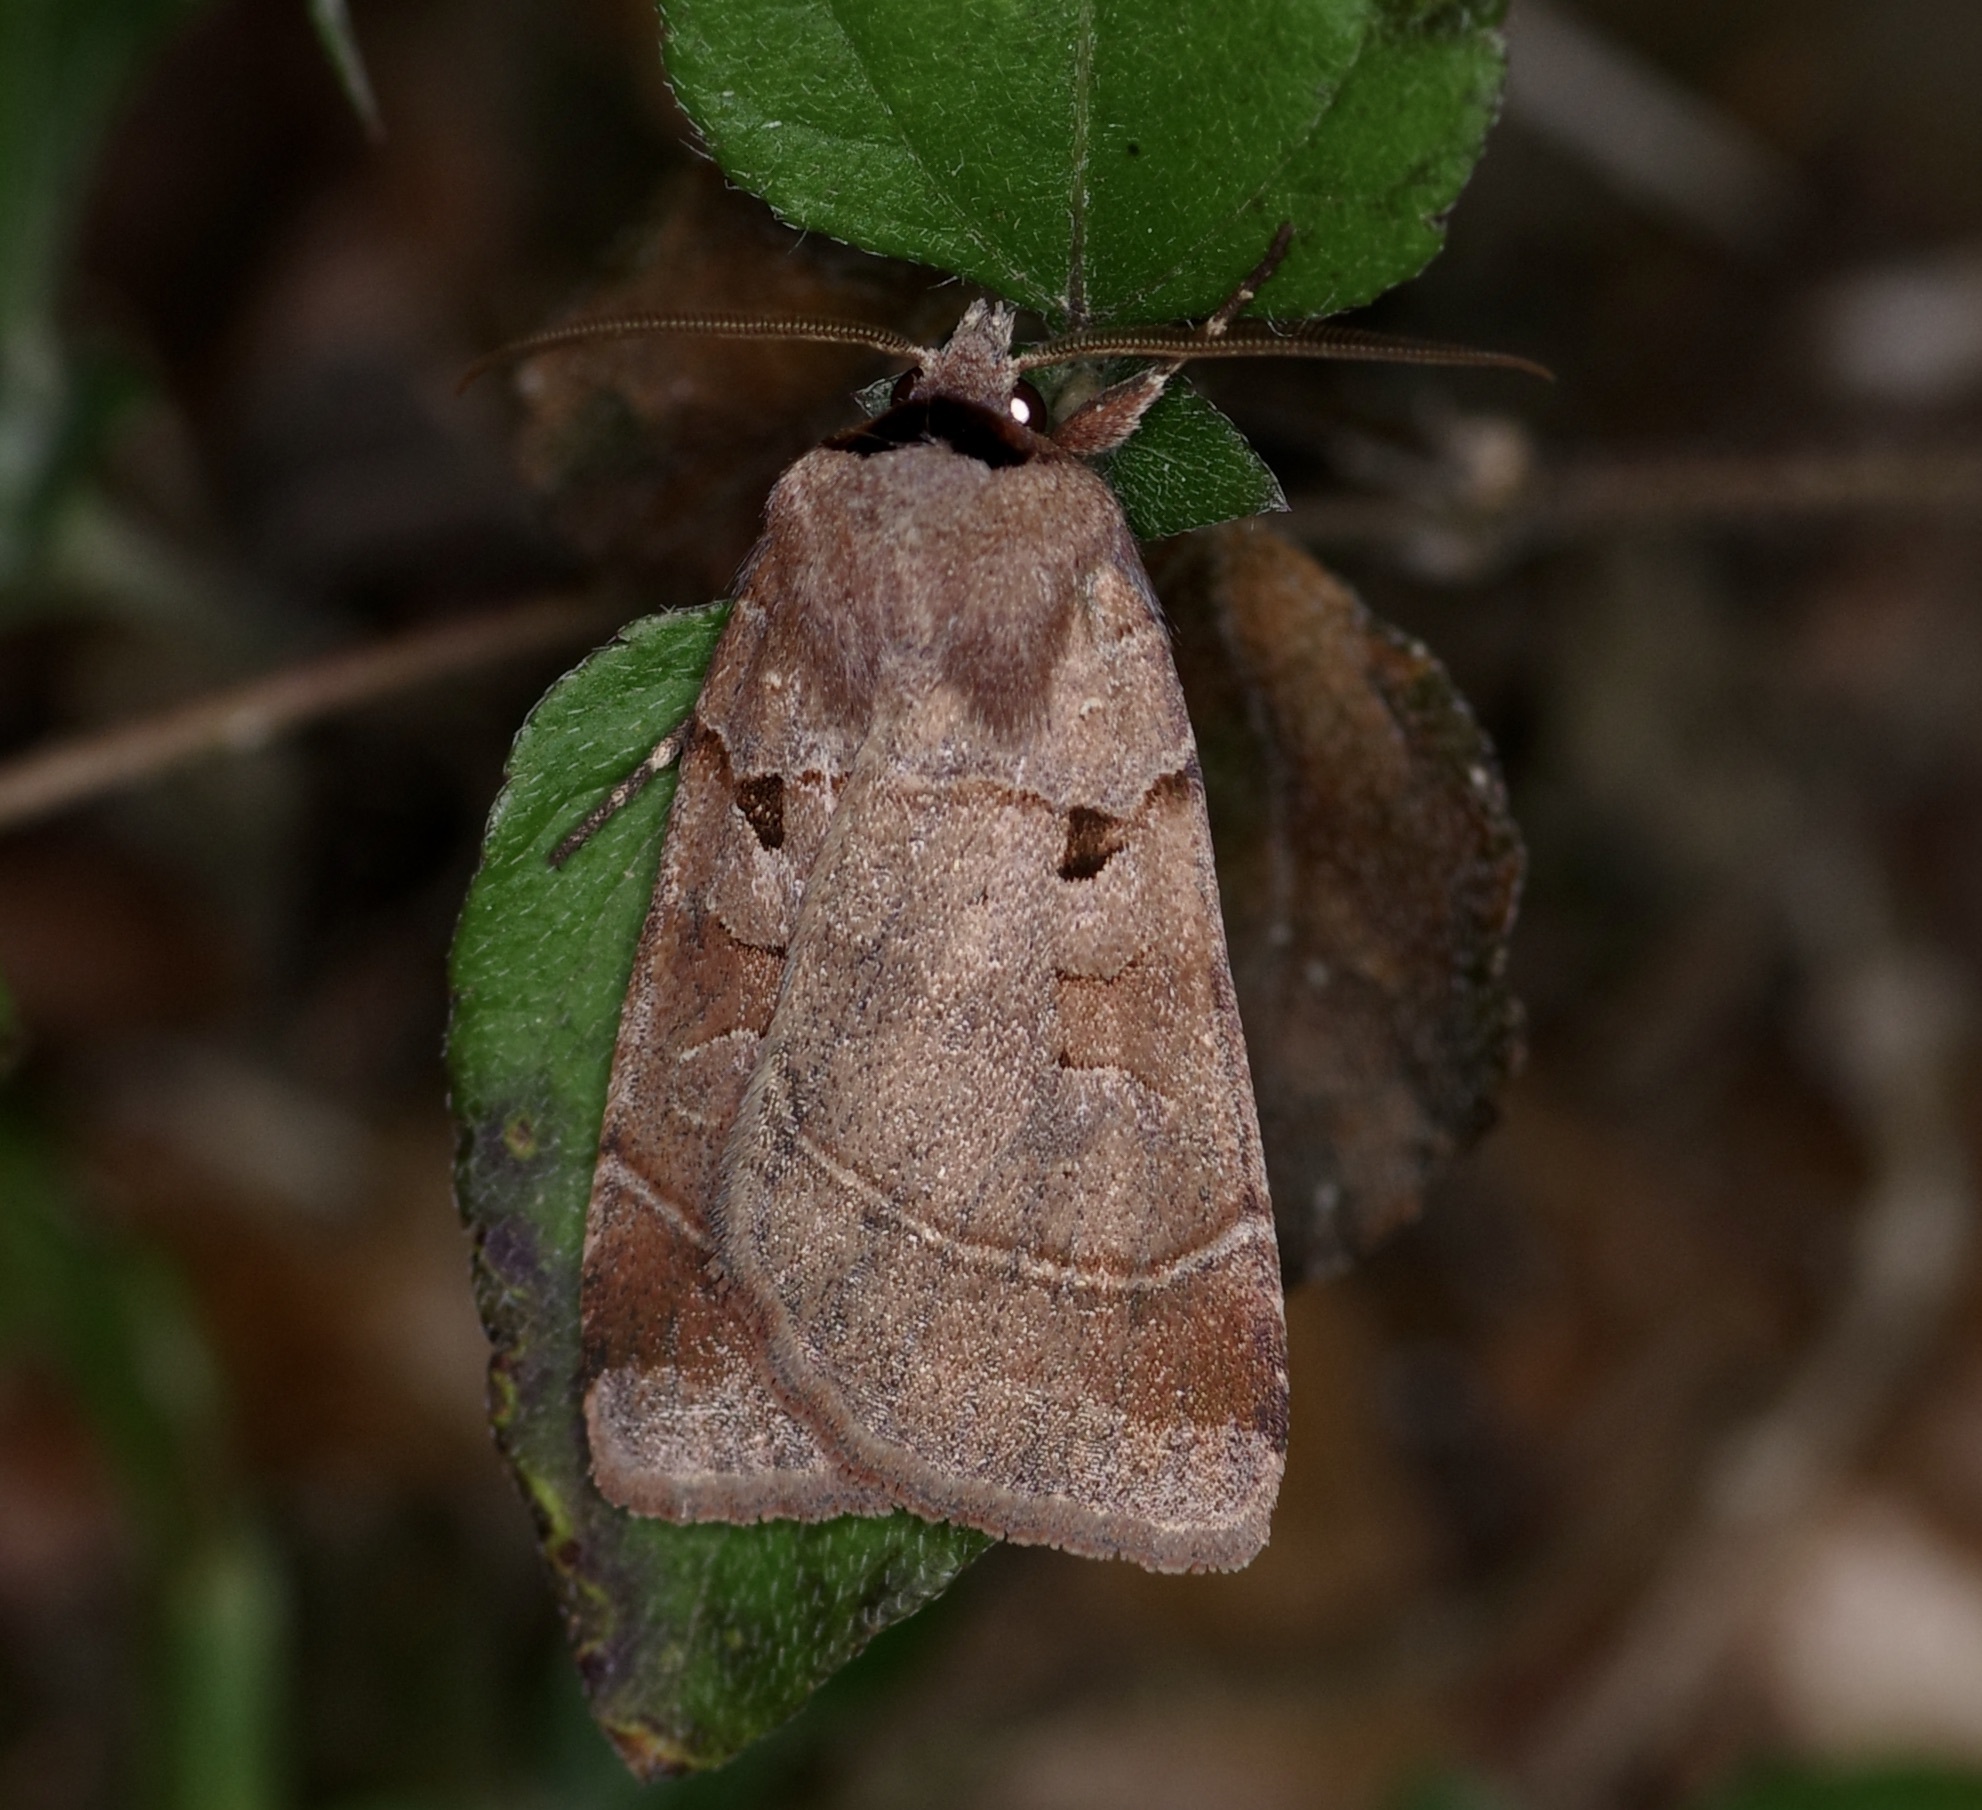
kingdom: Animalia
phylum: Arthropoda
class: Insecta
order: Lepidoptera
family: Noctuidae
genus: Agnorisma
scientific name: Agnorisma badinodis
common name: Pale-banded dart
